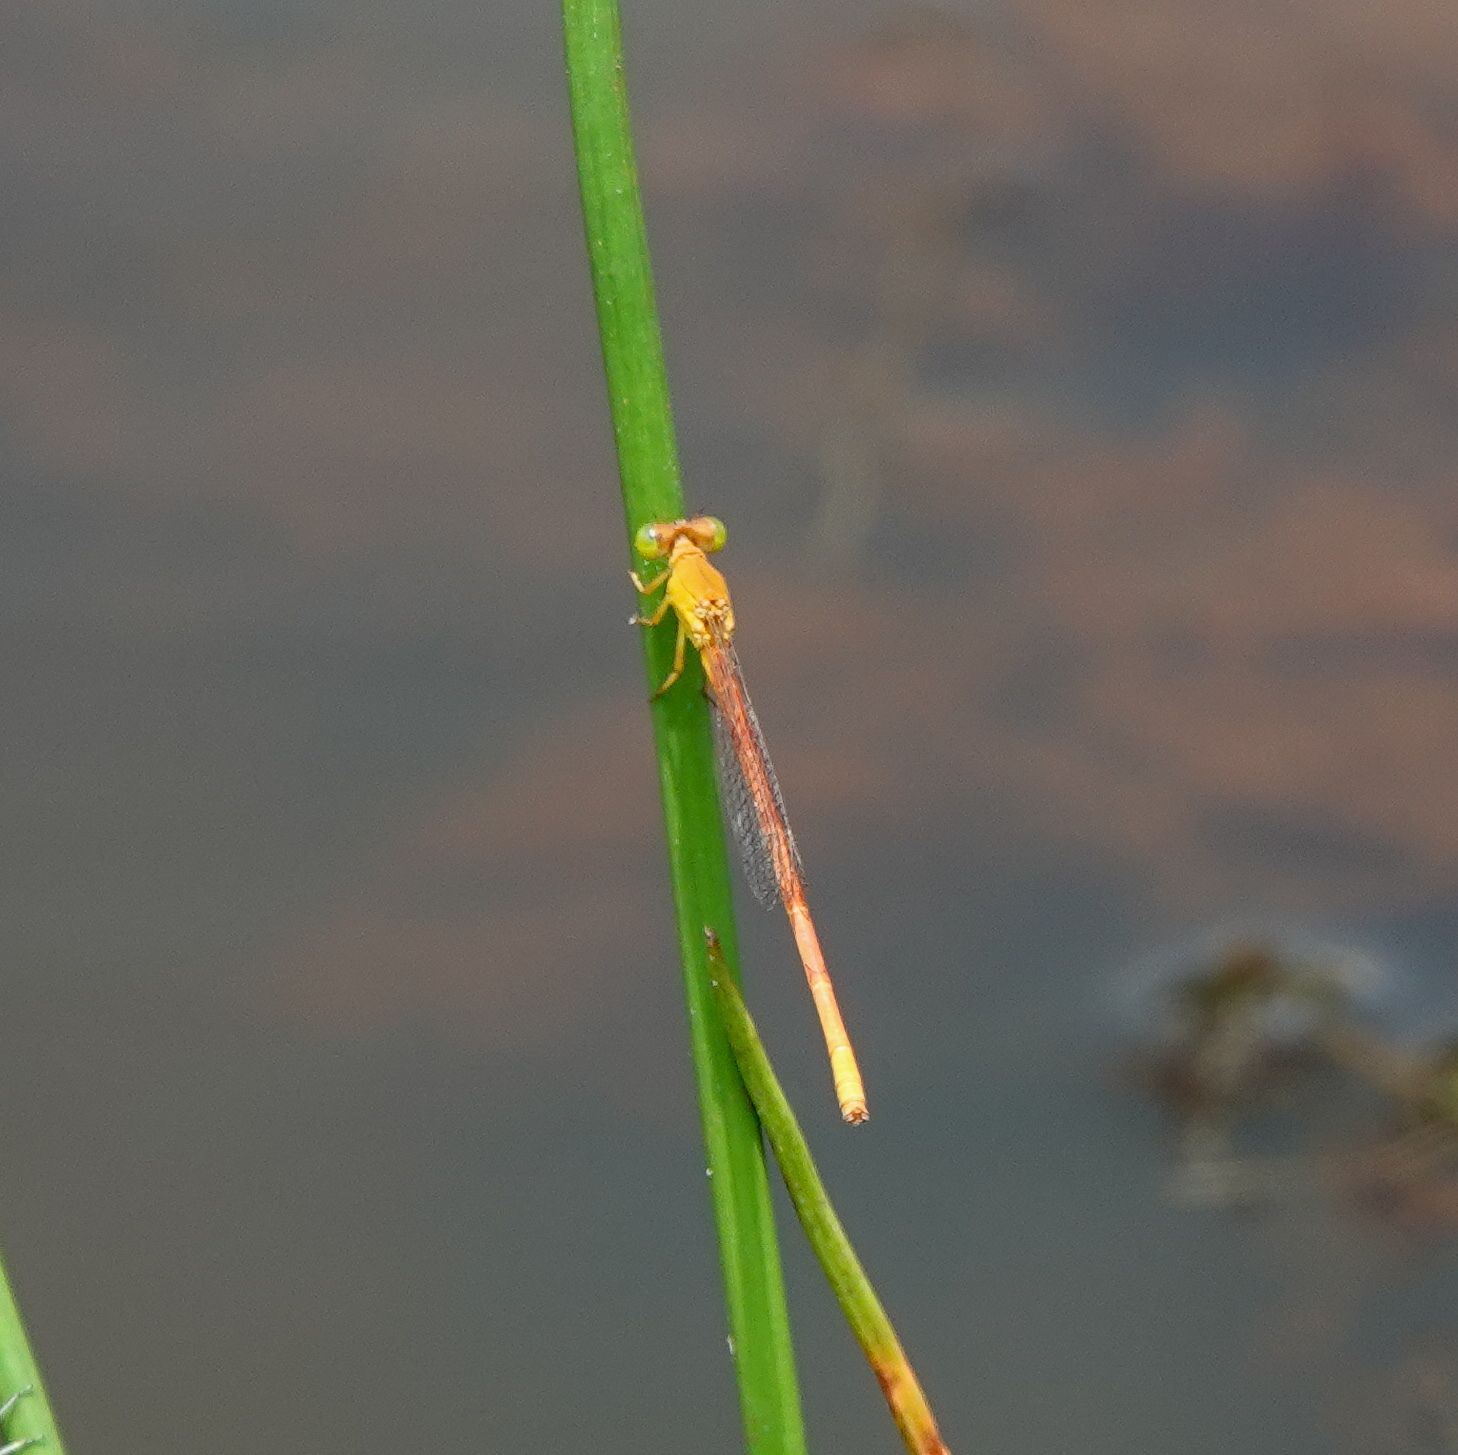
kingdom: Animalia
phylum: Arthropoda
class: Insecta
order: Odonata
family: Coenagrionidae
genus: Ceriagrion
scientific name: Ceriagrion rubiae
